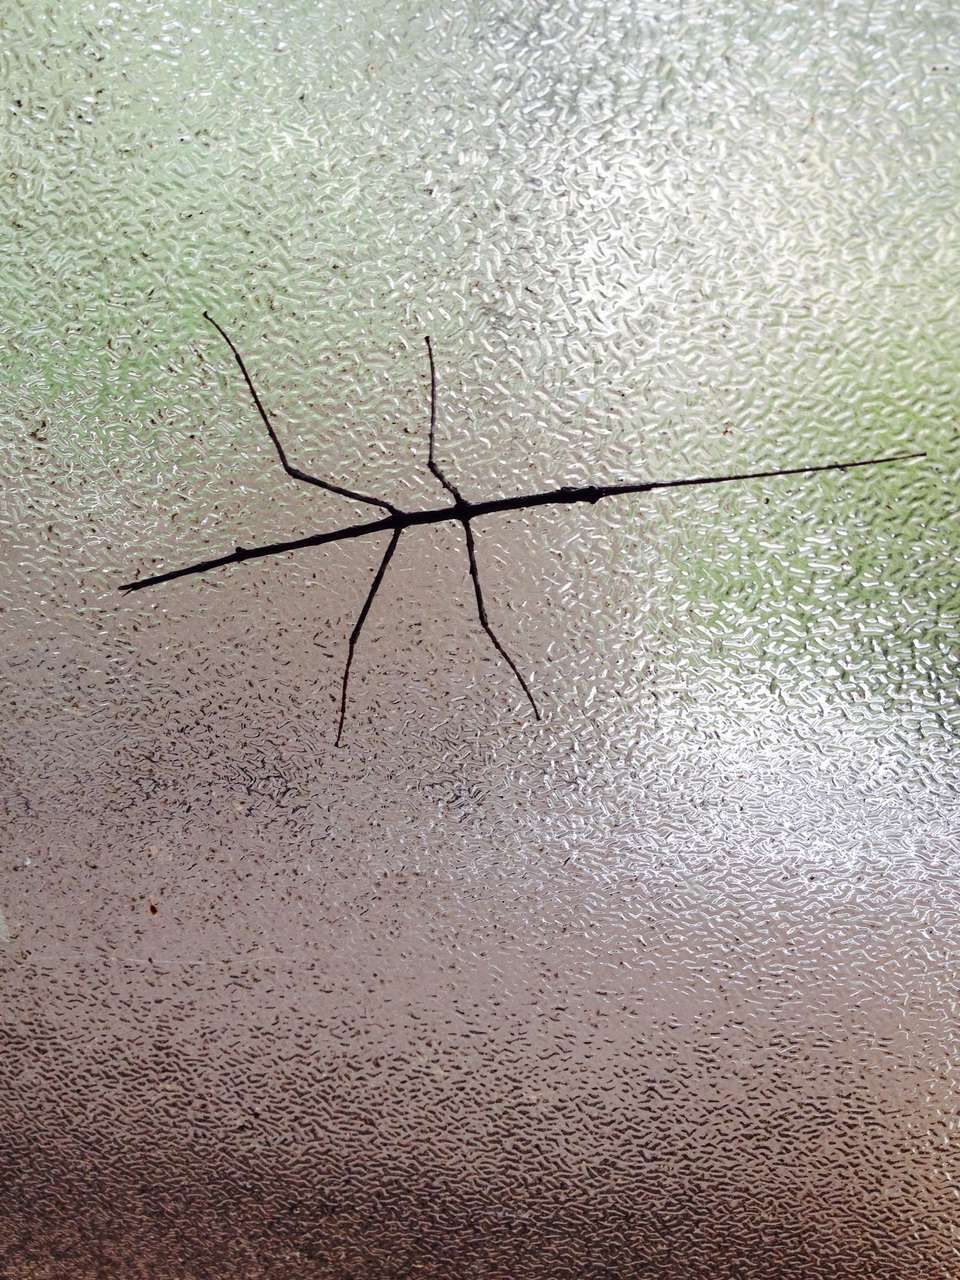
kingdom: Animalia
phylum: Arthropoda
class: Insecta
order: Phasmida
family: Phasmatidae
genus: Ctenomorpha
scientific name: Ctenomorpha marginipennis
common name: Margined-winged stick-insect
